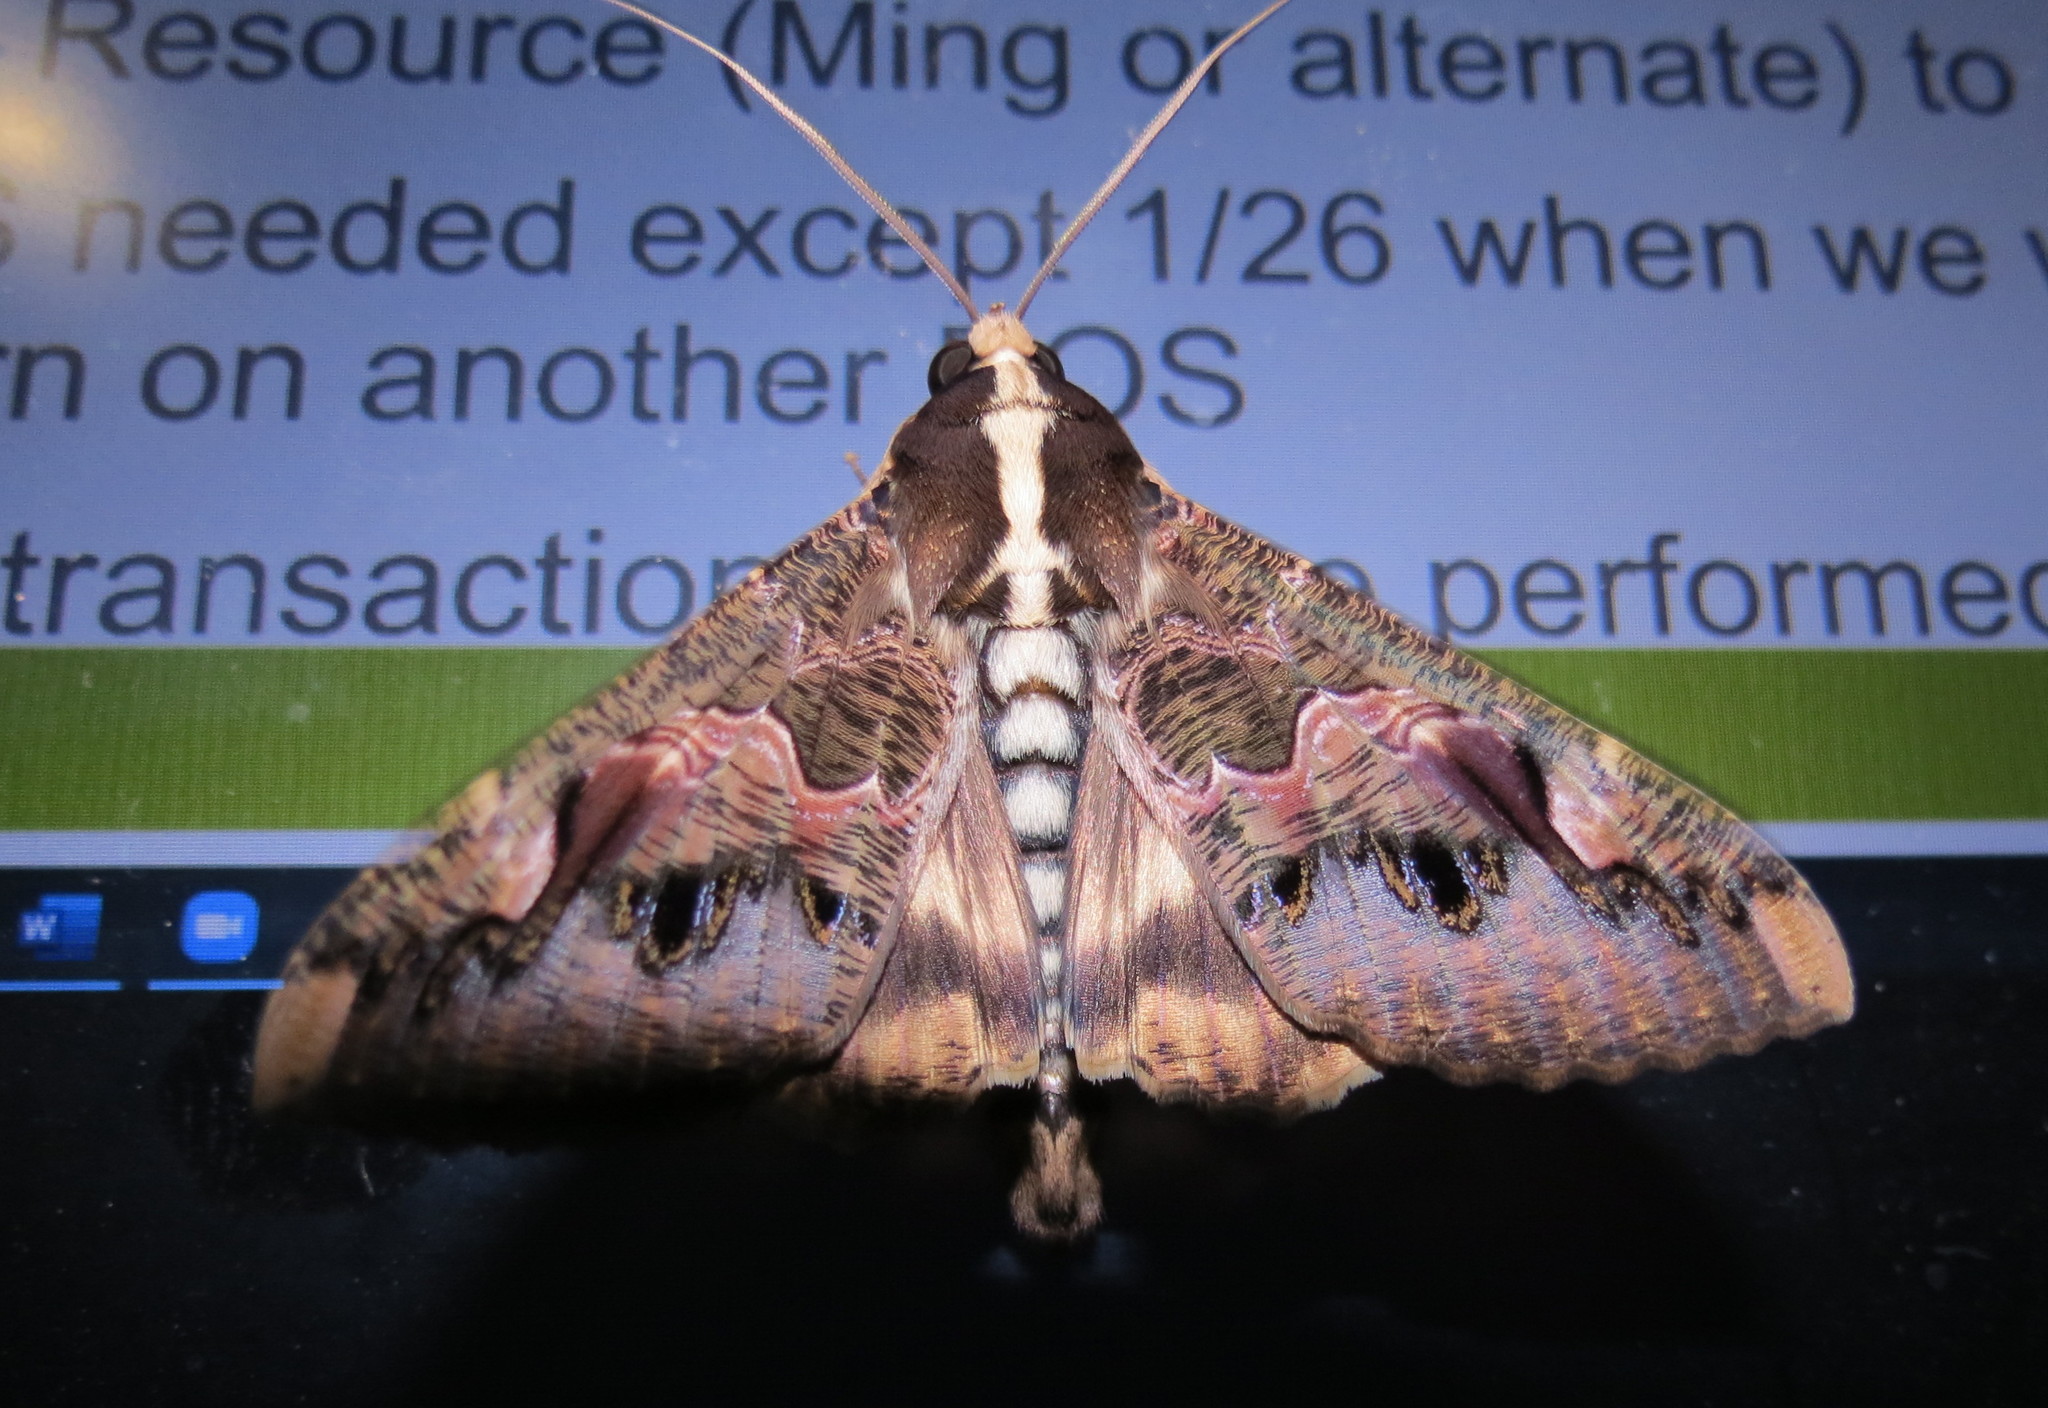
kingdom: Animalia
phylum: Arthropoda
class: Insecta
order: Lepidoptera
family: Erebidae
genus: Sphingomorpha
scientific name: Sphingomorpha chlorea
